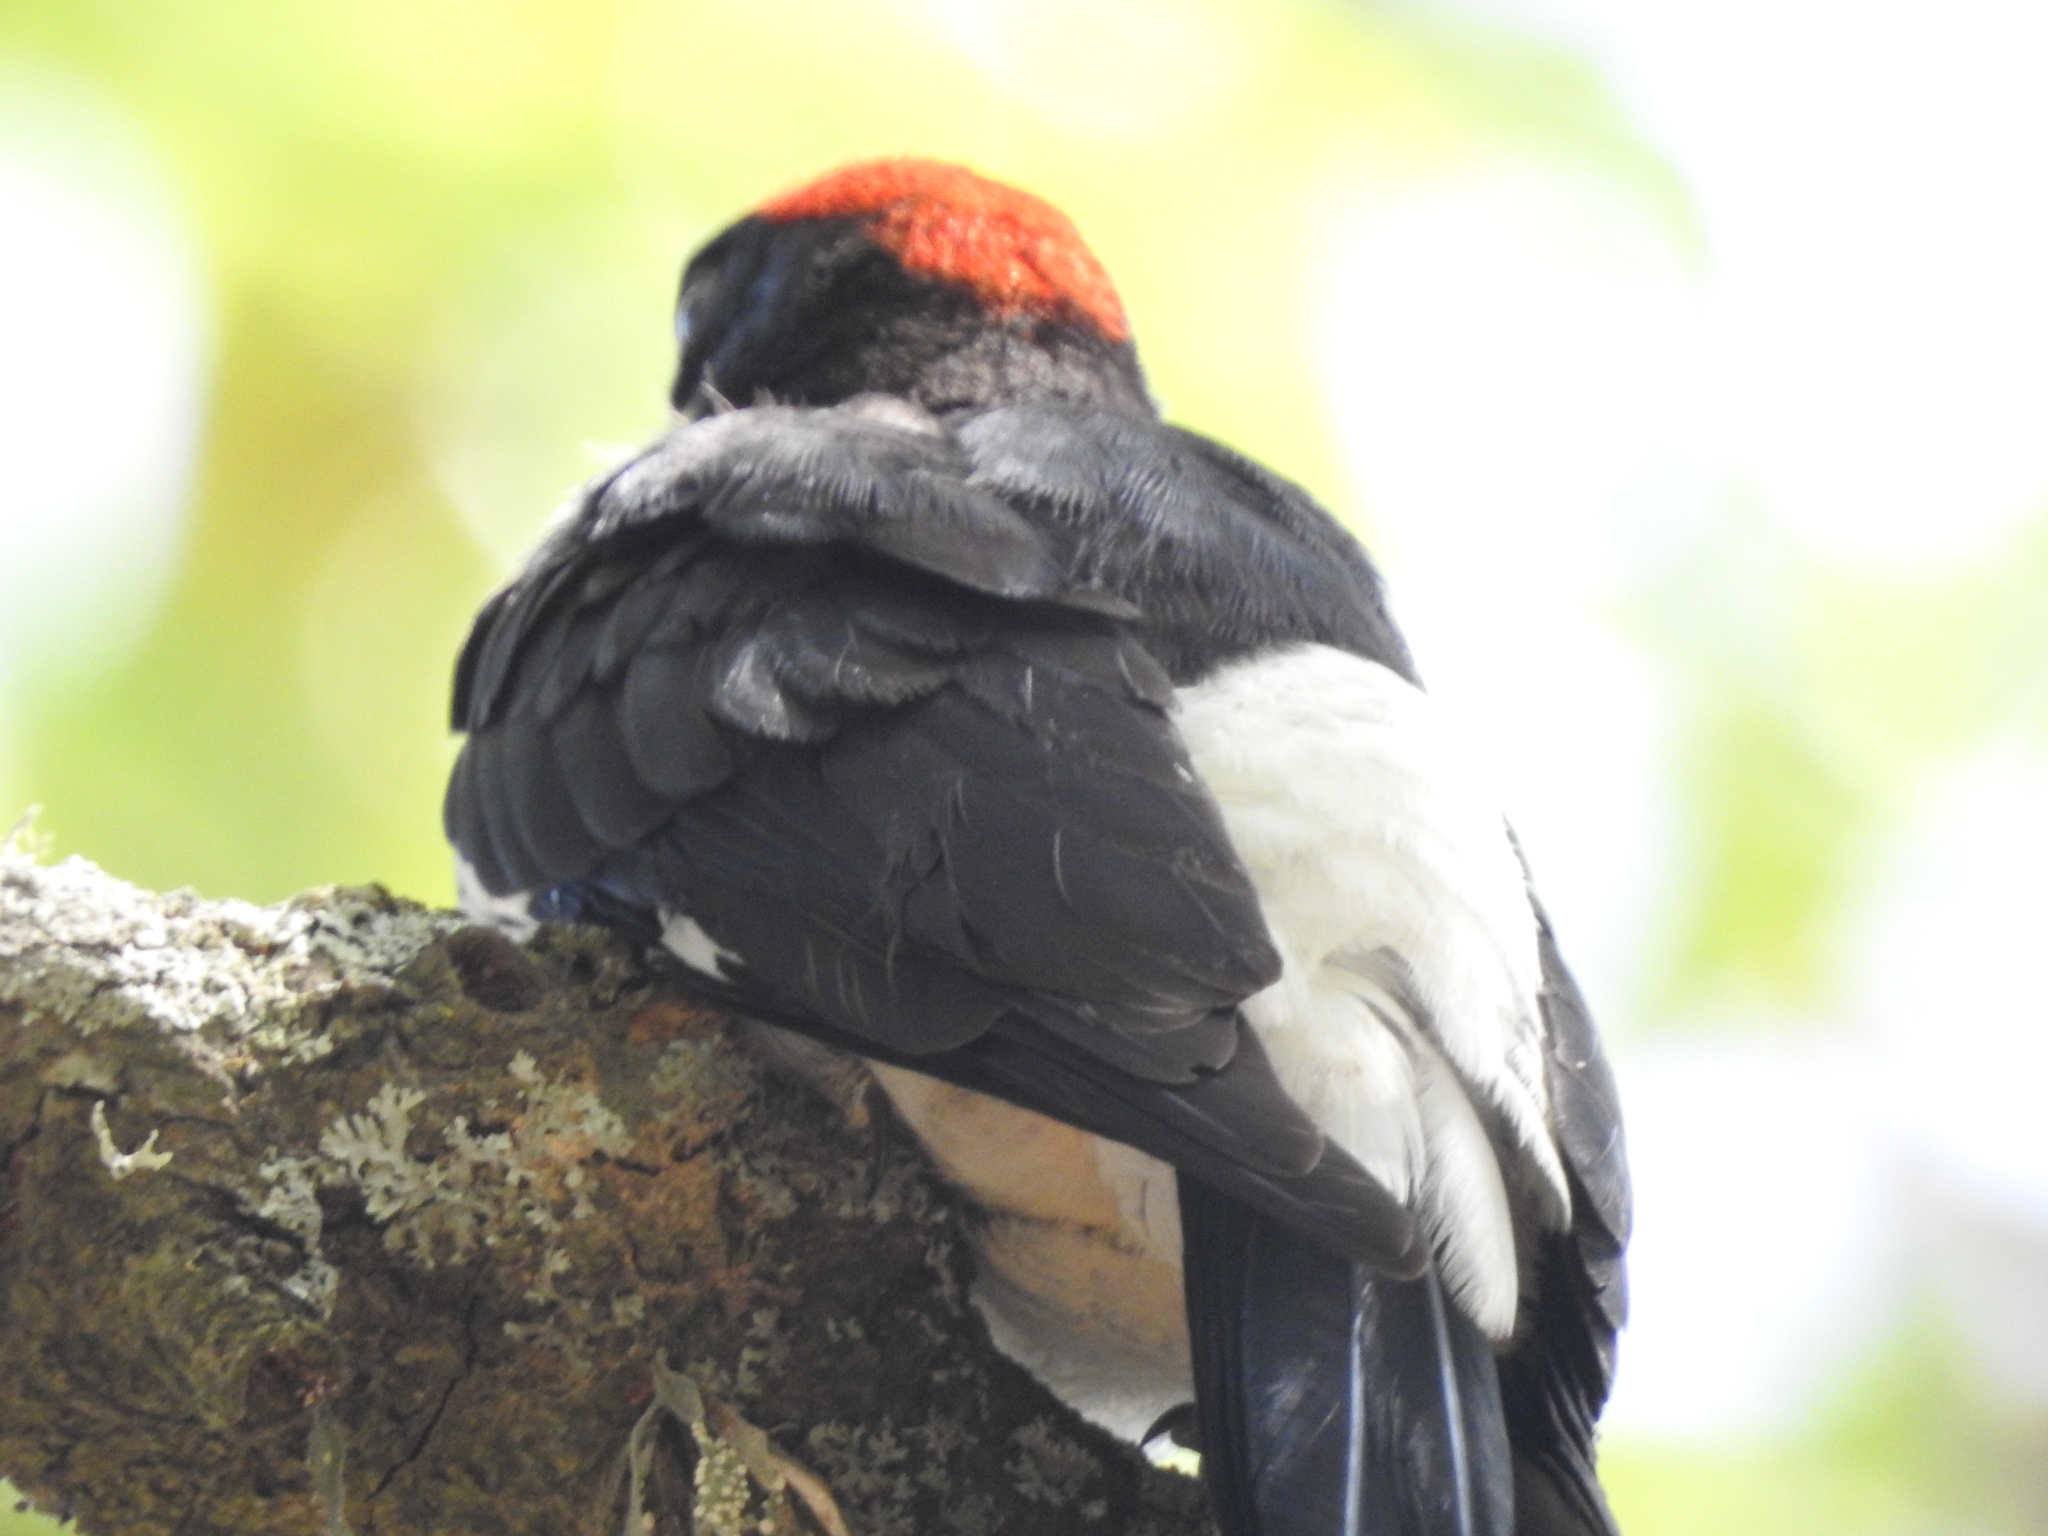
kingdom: Animalia
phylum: Chordata
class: Aves
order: Piciformes
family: Picidae
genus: Melanerpes
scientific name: Melanerpes formicivorus
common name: Acorn woodpecker
